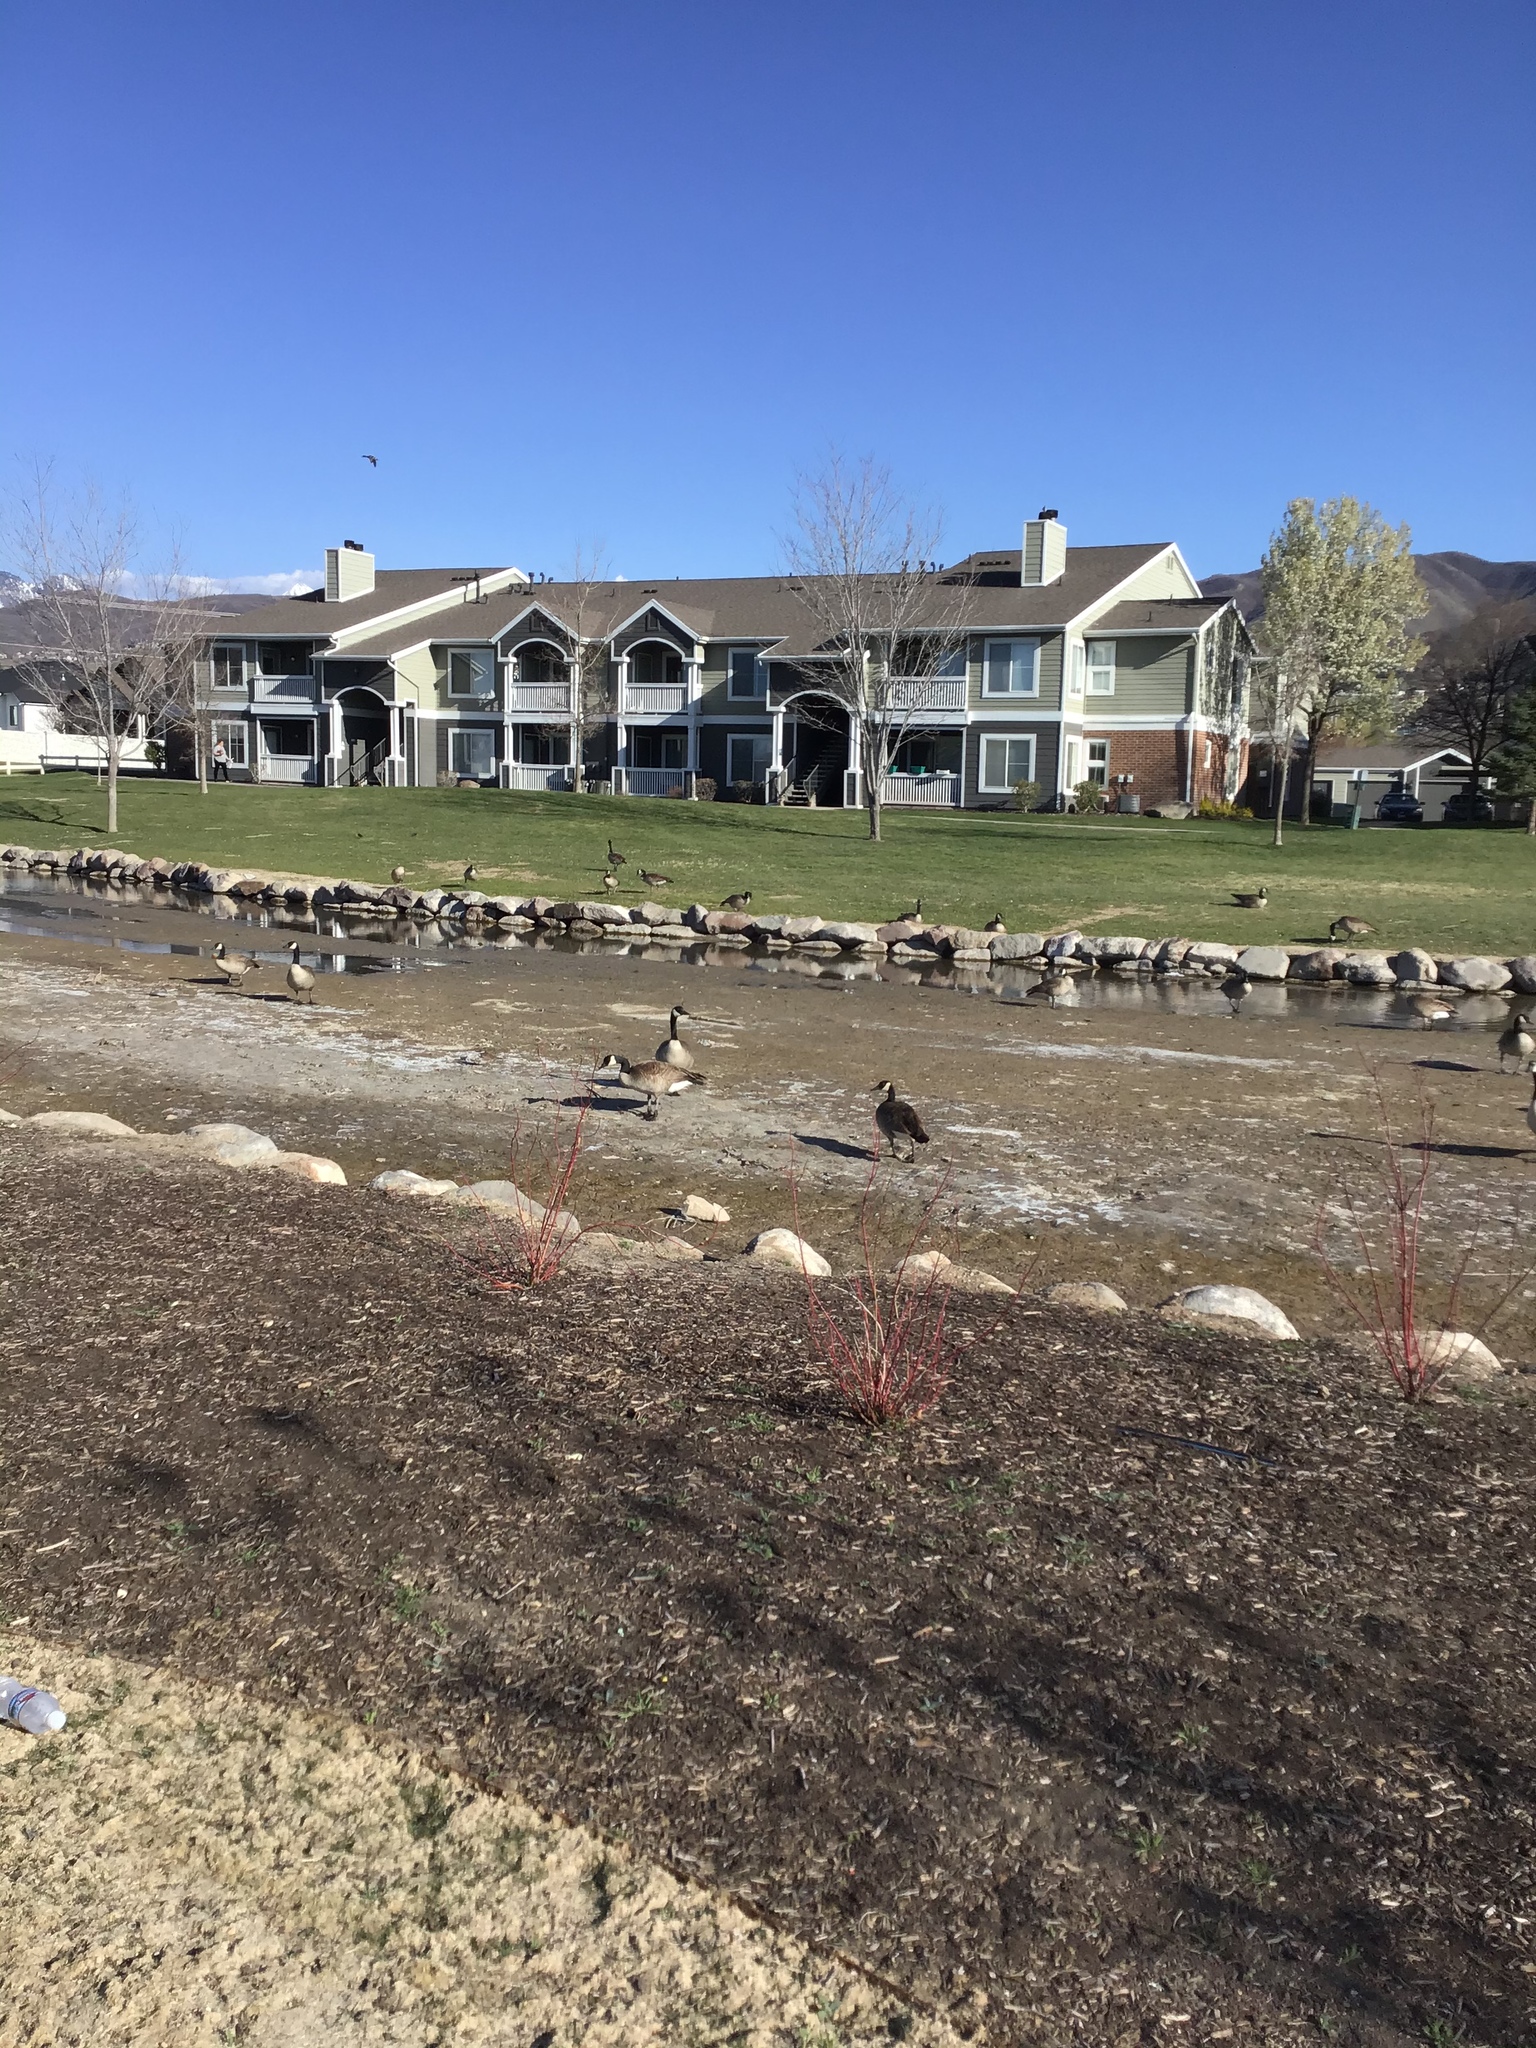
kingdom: Animalia
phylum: Chordata
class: Aves
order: Anseriformes
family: Anatidae
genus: Branta
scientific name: Branta canadensis
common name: Canada goose
